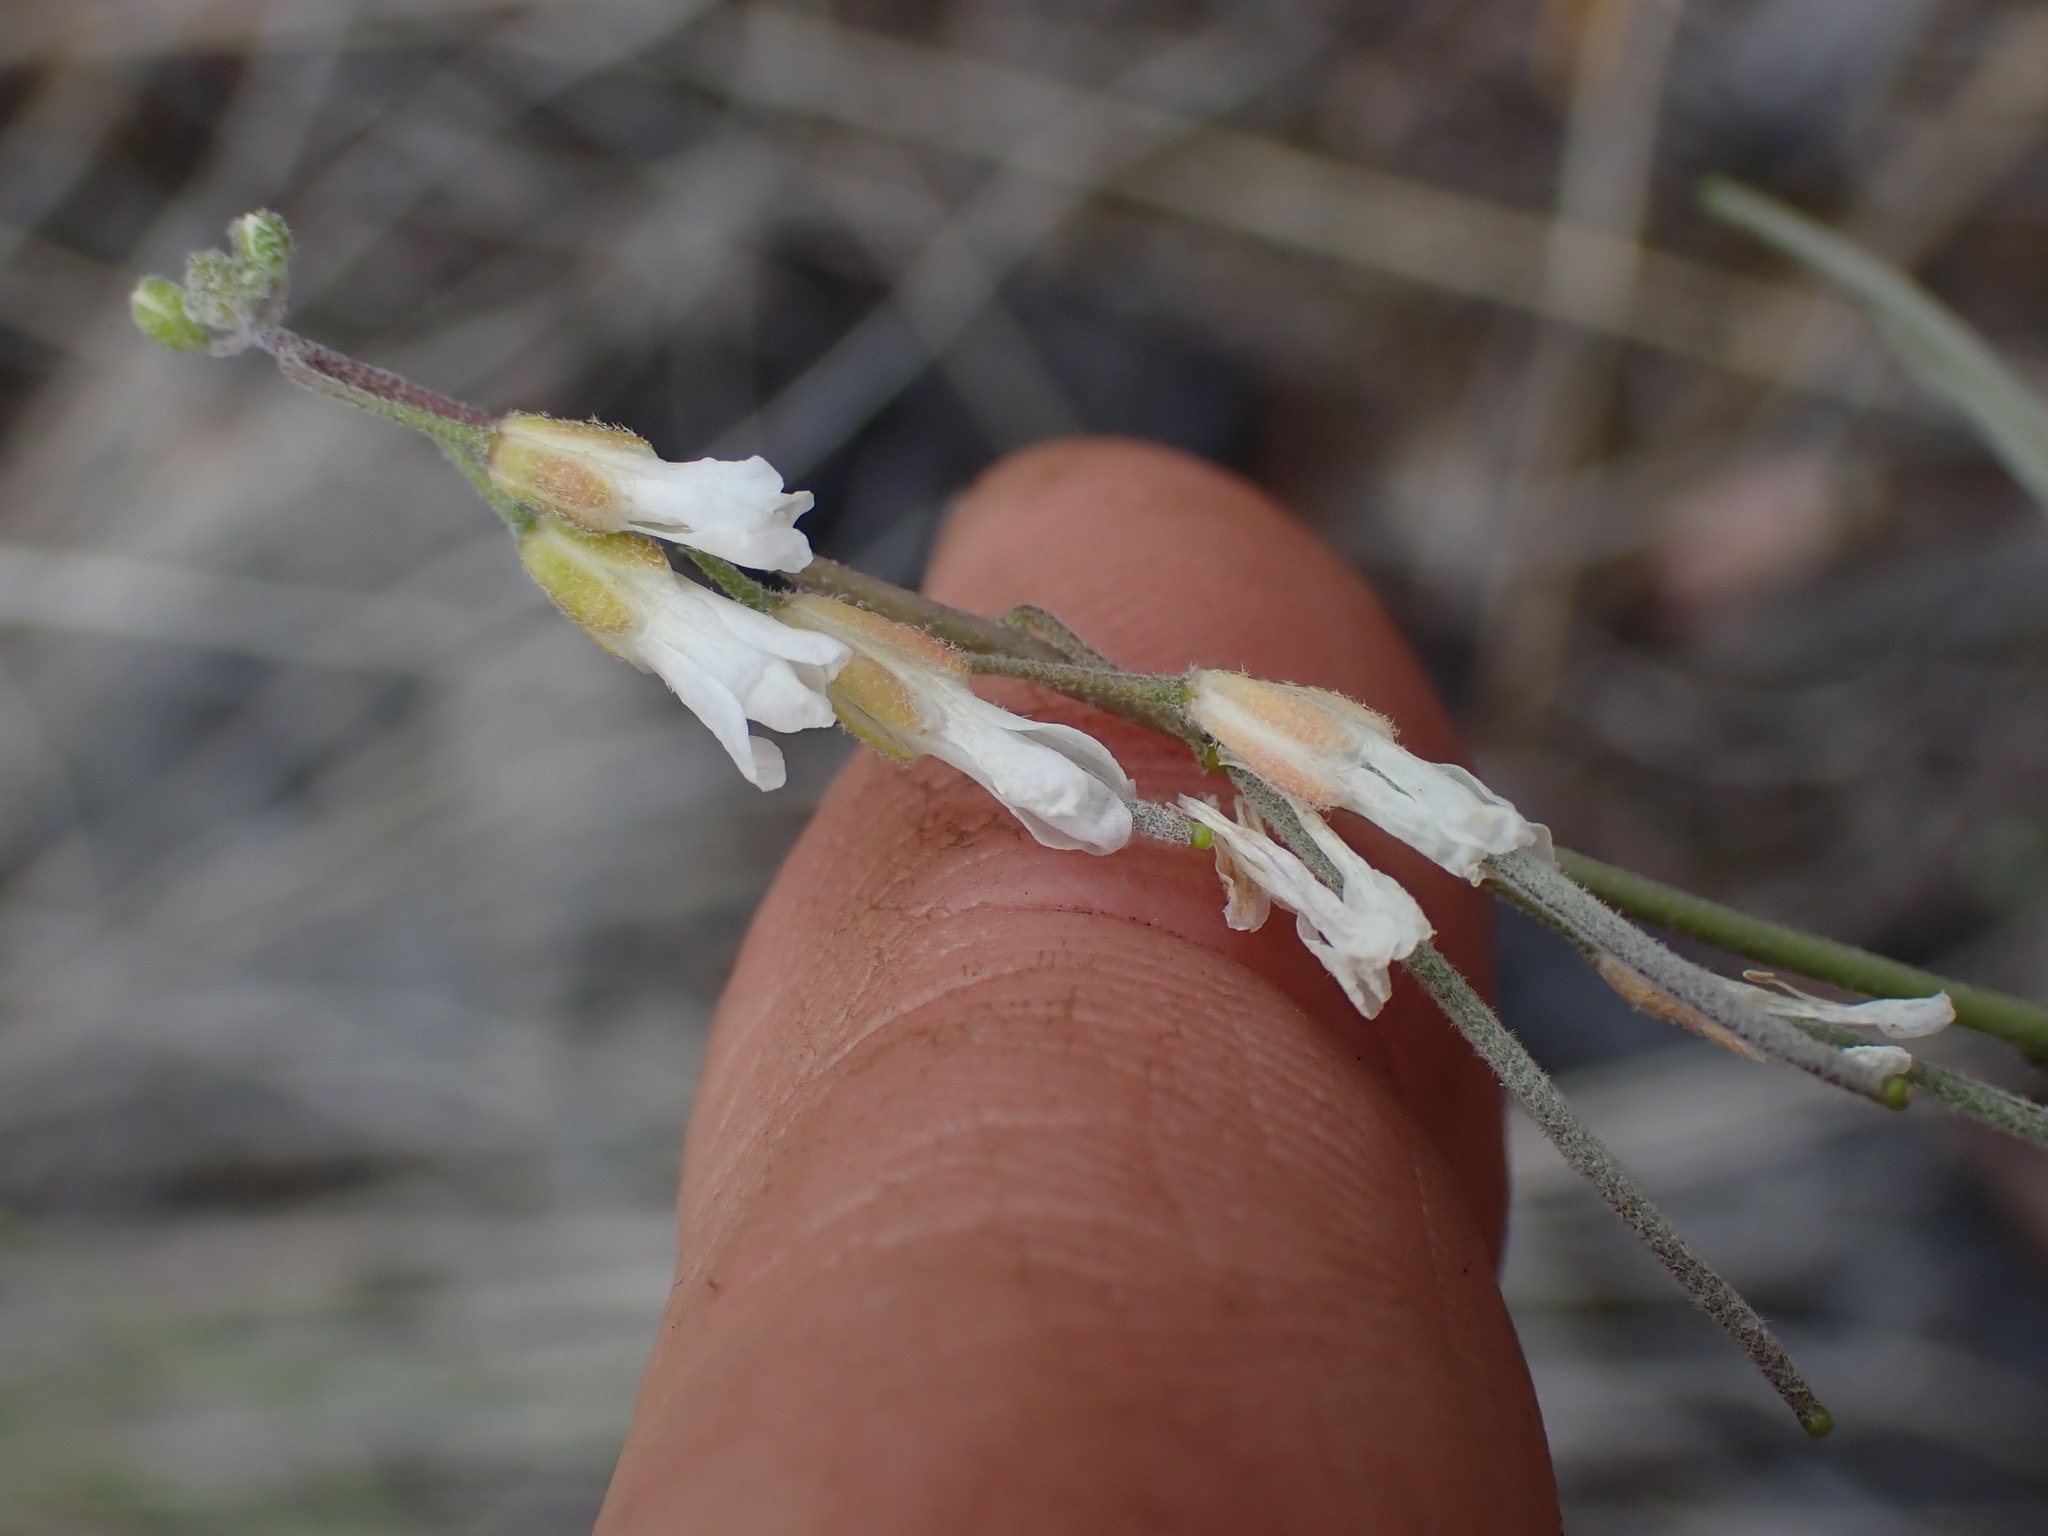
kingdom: Plantae
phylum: Tracheophyta
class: Magnoliopsida
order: Brassicales
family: Brassicaceae
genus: Boechera
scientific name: Boechera retrofracta
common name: Dangling suncress
